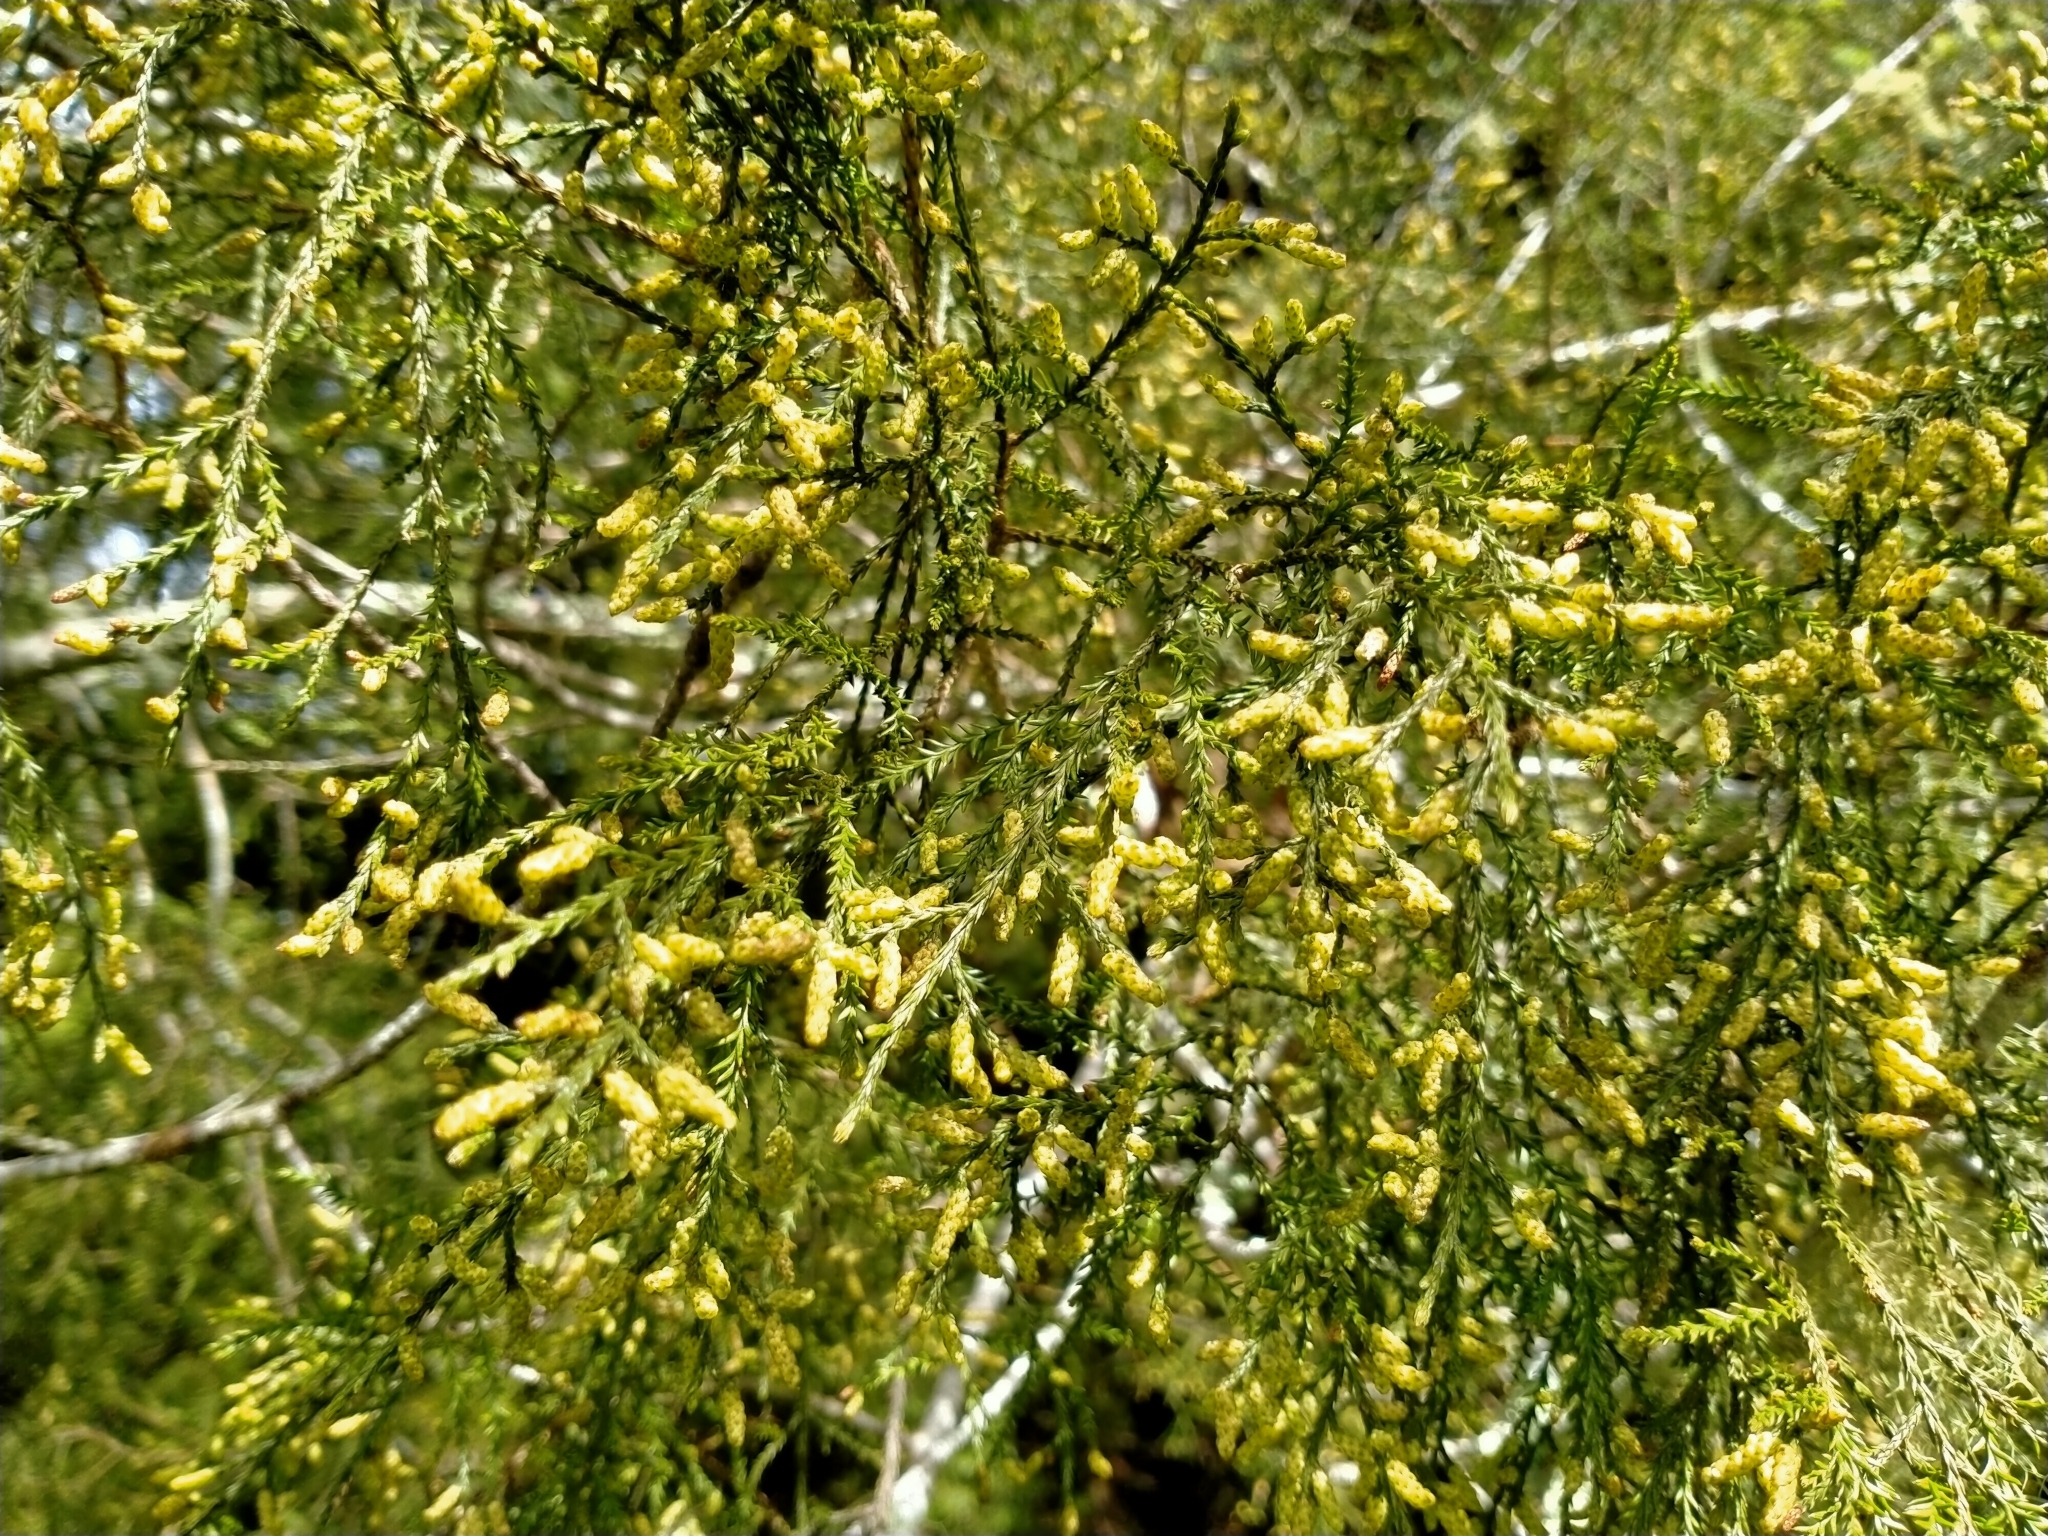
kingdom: Plantae
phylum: Tracheophyta
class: Pinopsida
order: Pinales
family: Podocarpaceae
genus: Dacrycarpus
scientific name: Dacrycarpus dacrydioides
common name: White pine
